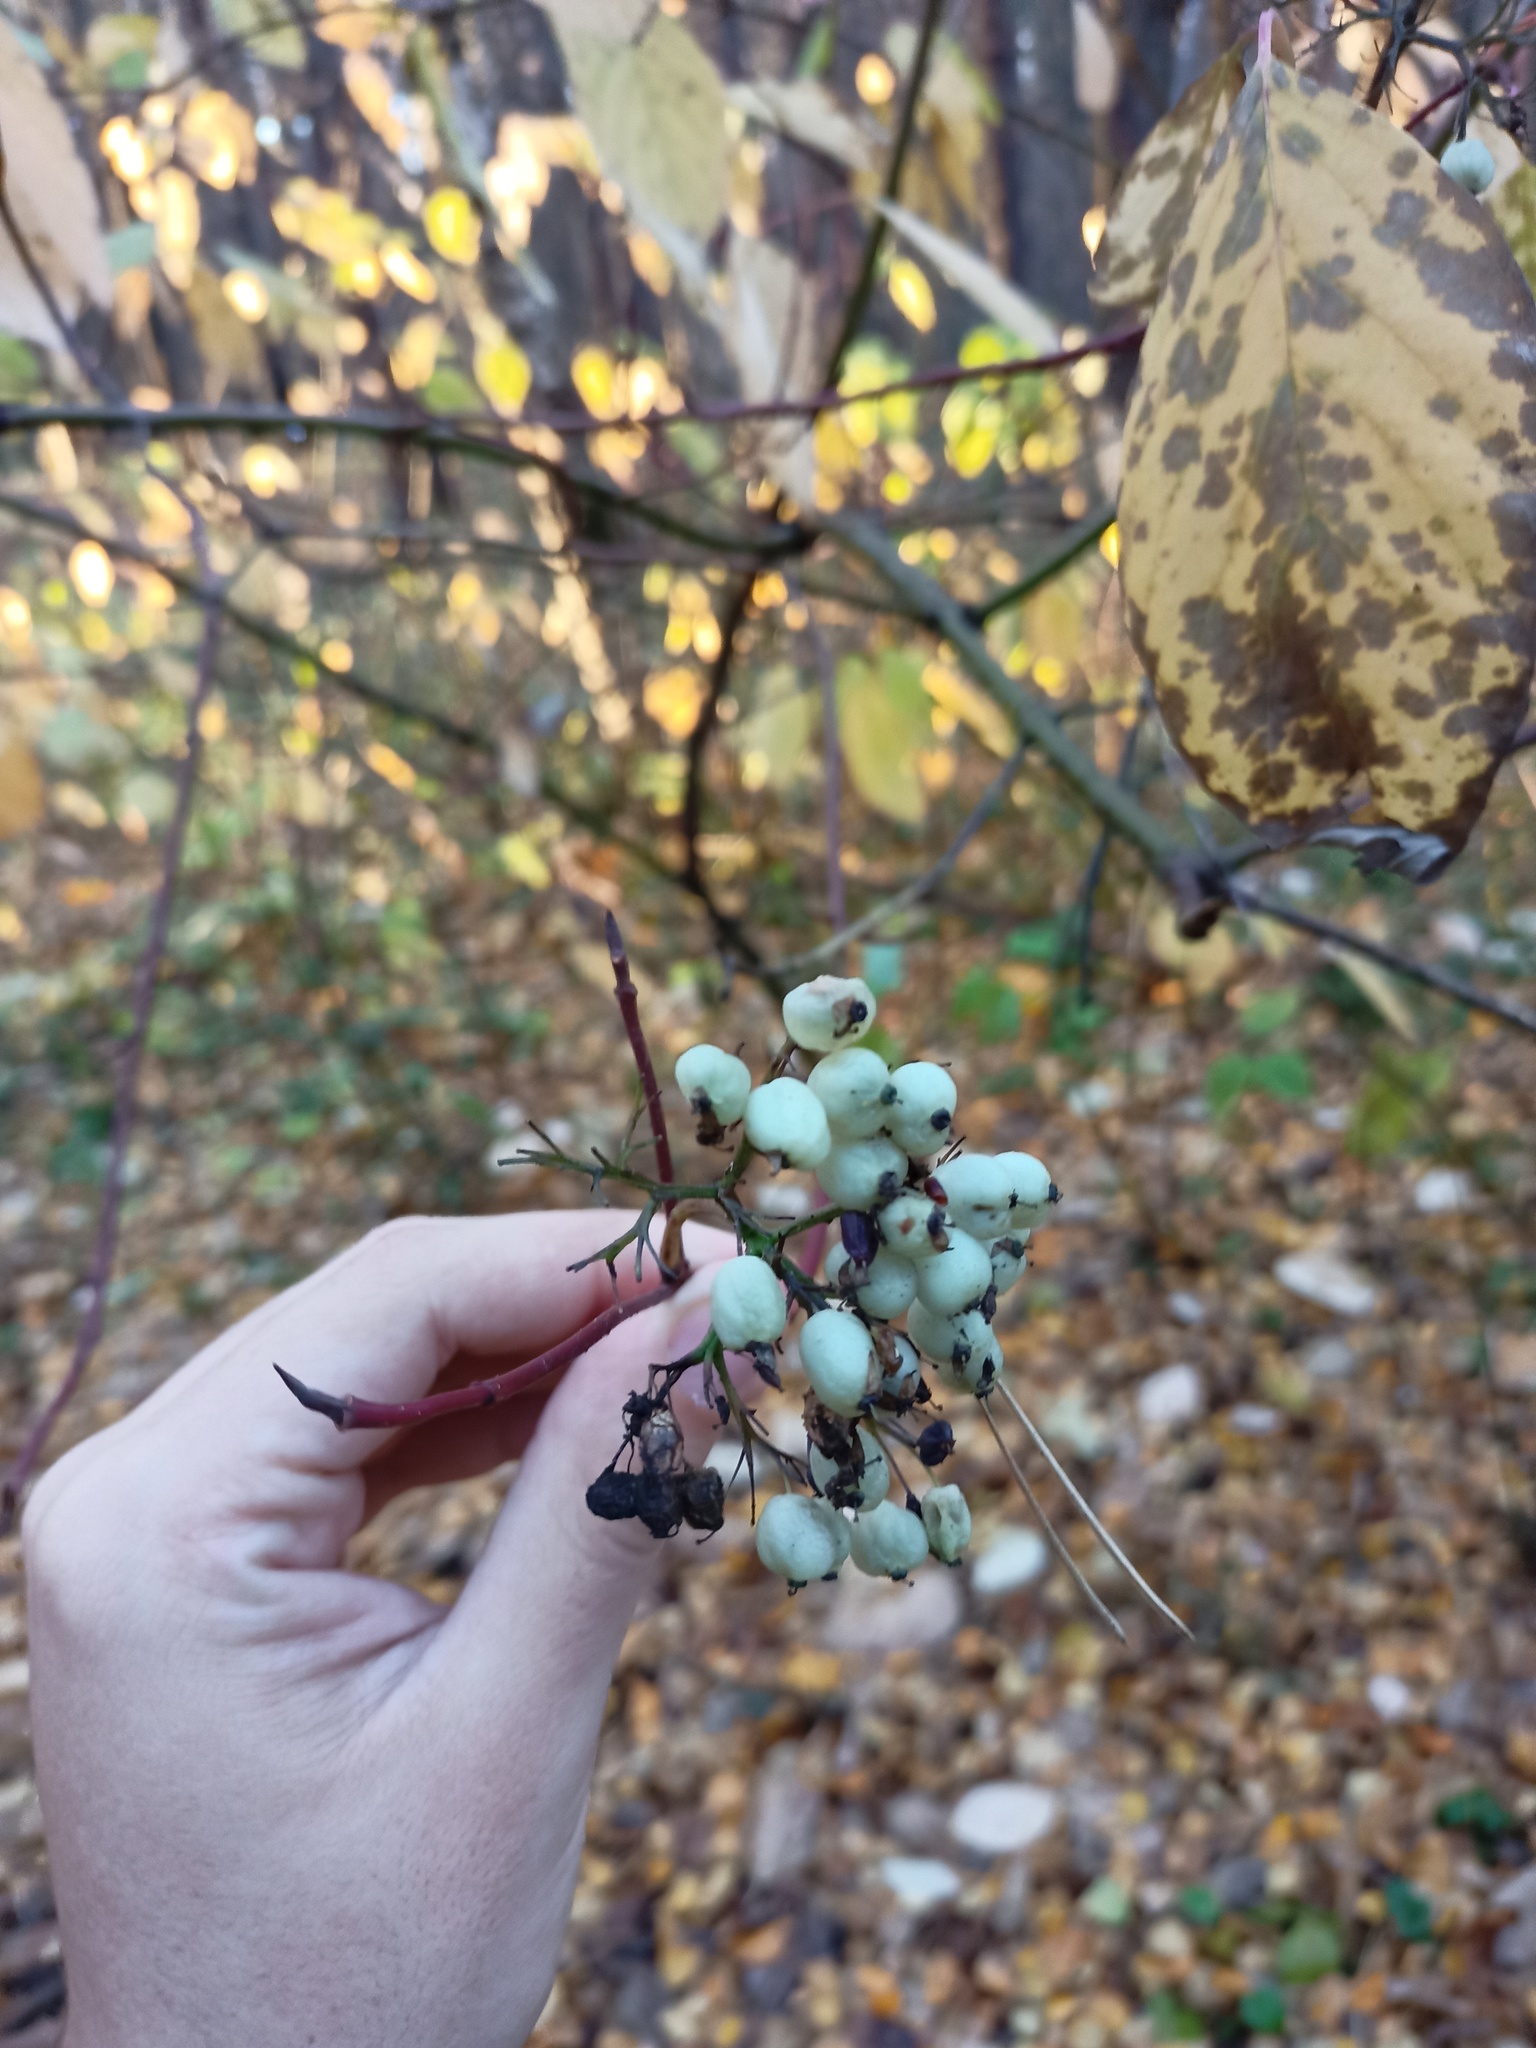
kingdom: Plantae
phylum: Tracheophyta
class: Magnoliopsida
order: Cornales
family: Cornaceae
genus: Cornus
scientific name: Cornus sericea
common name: Red-osier dogwood
